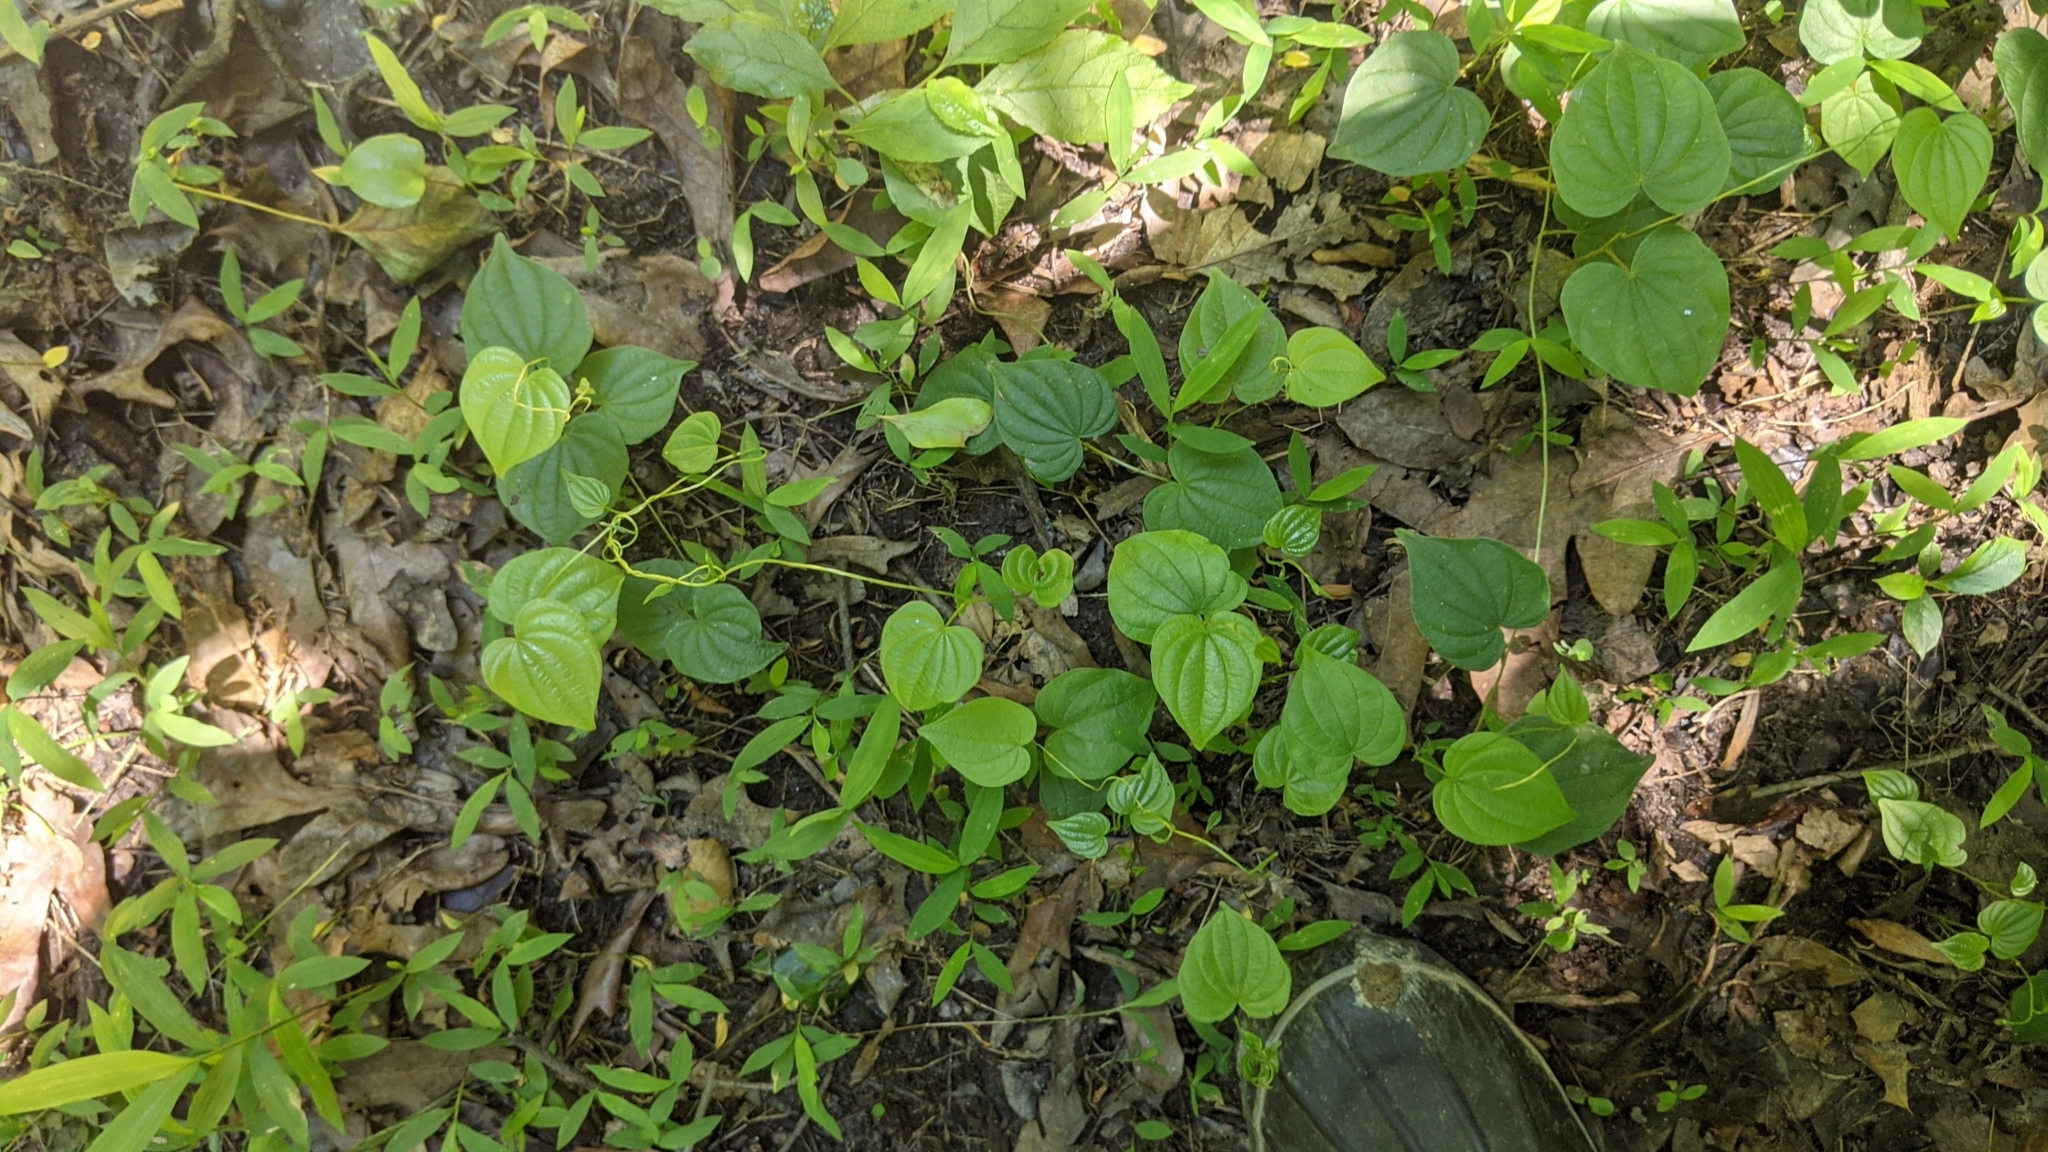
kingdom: Plantae
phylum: Tracheophyta
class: Liliopsida
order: Dioscoreales
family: Dioscoreaceae
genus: Dioscorea
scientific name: Dioscorea villosa
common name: Wild yam
